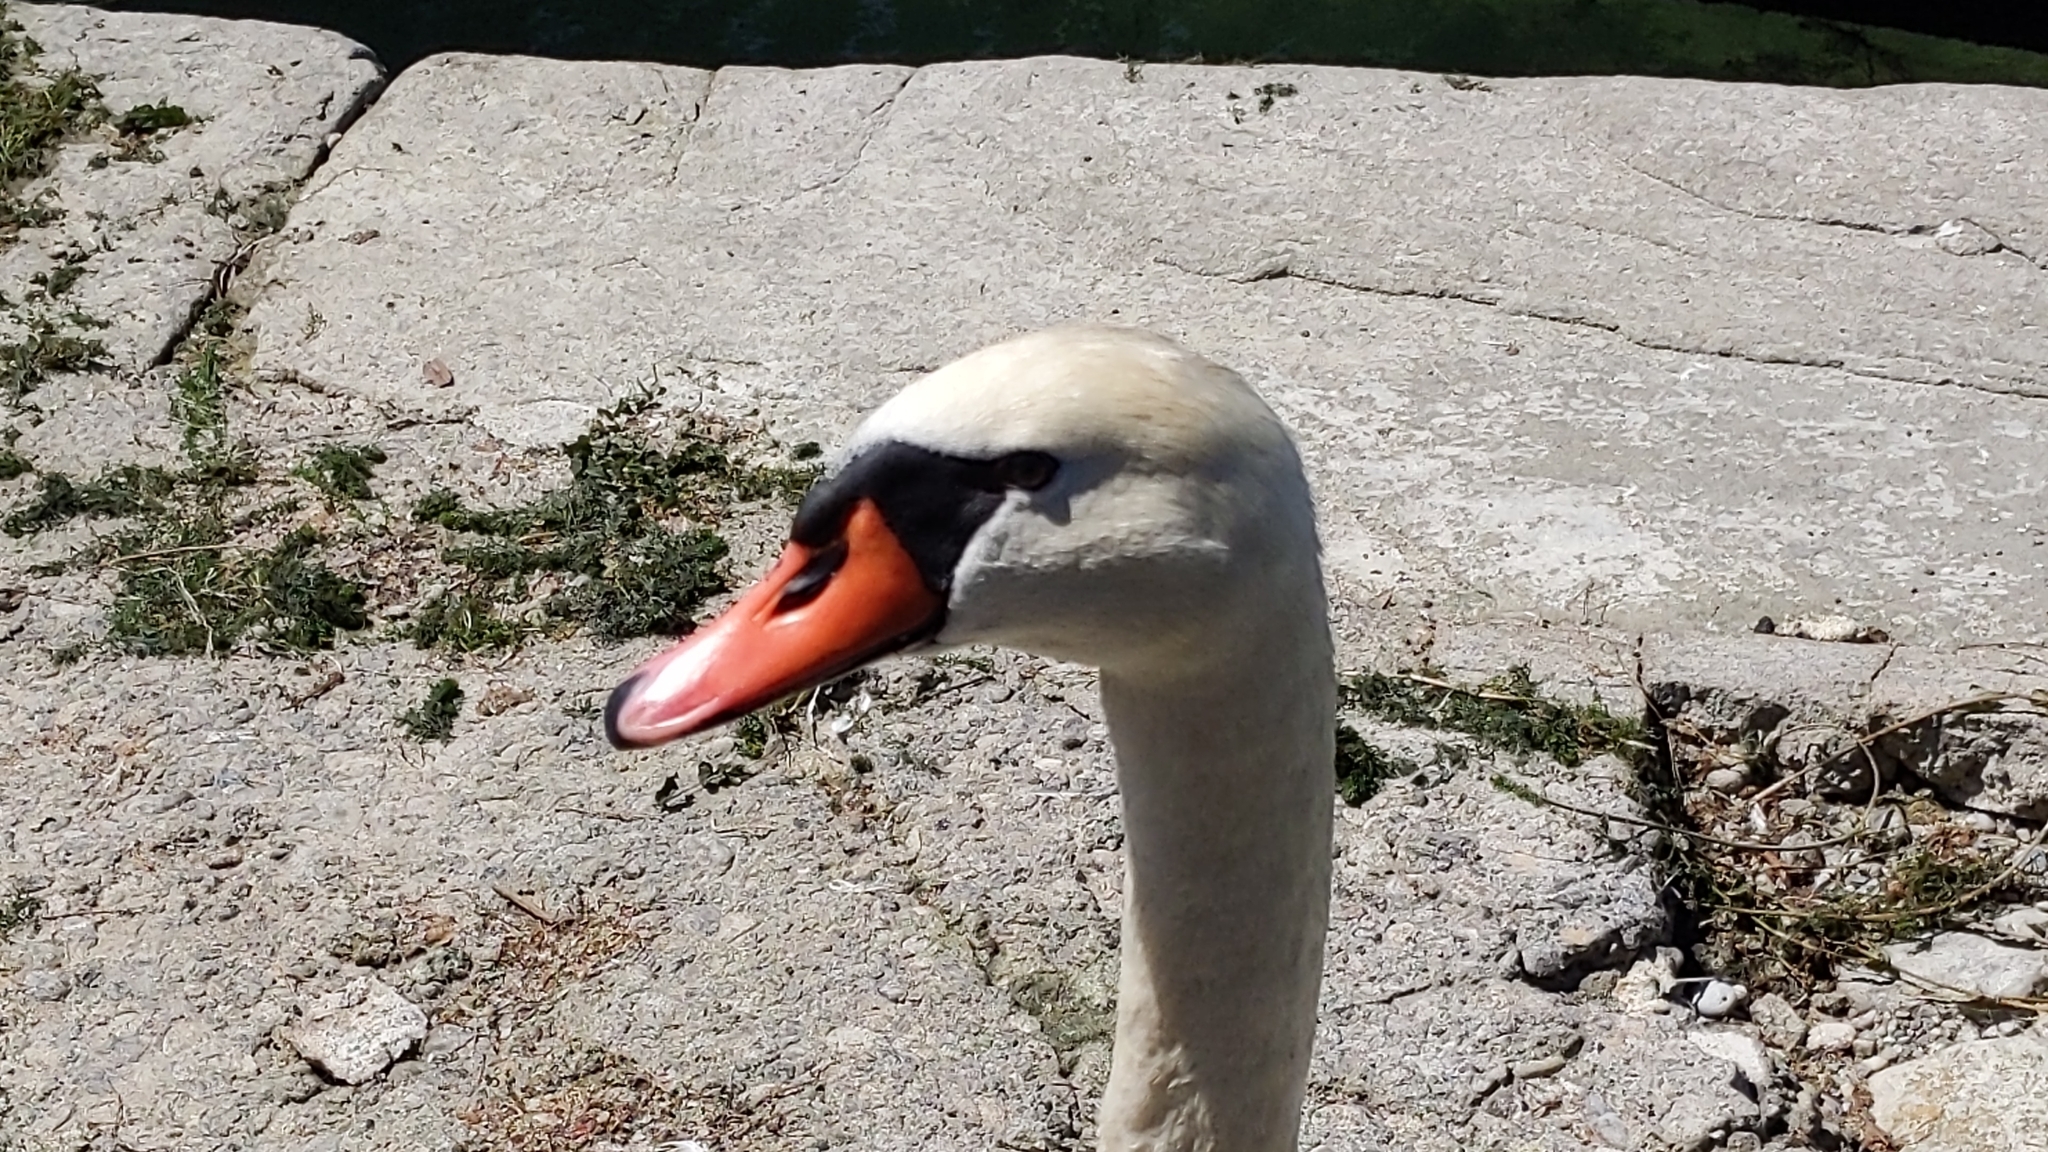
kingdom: Animalia
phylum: Chordata
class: Aves
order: Anseriformes
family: Anatidae
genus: Cygnus
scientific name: Cygnus olor
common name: Mute swan
